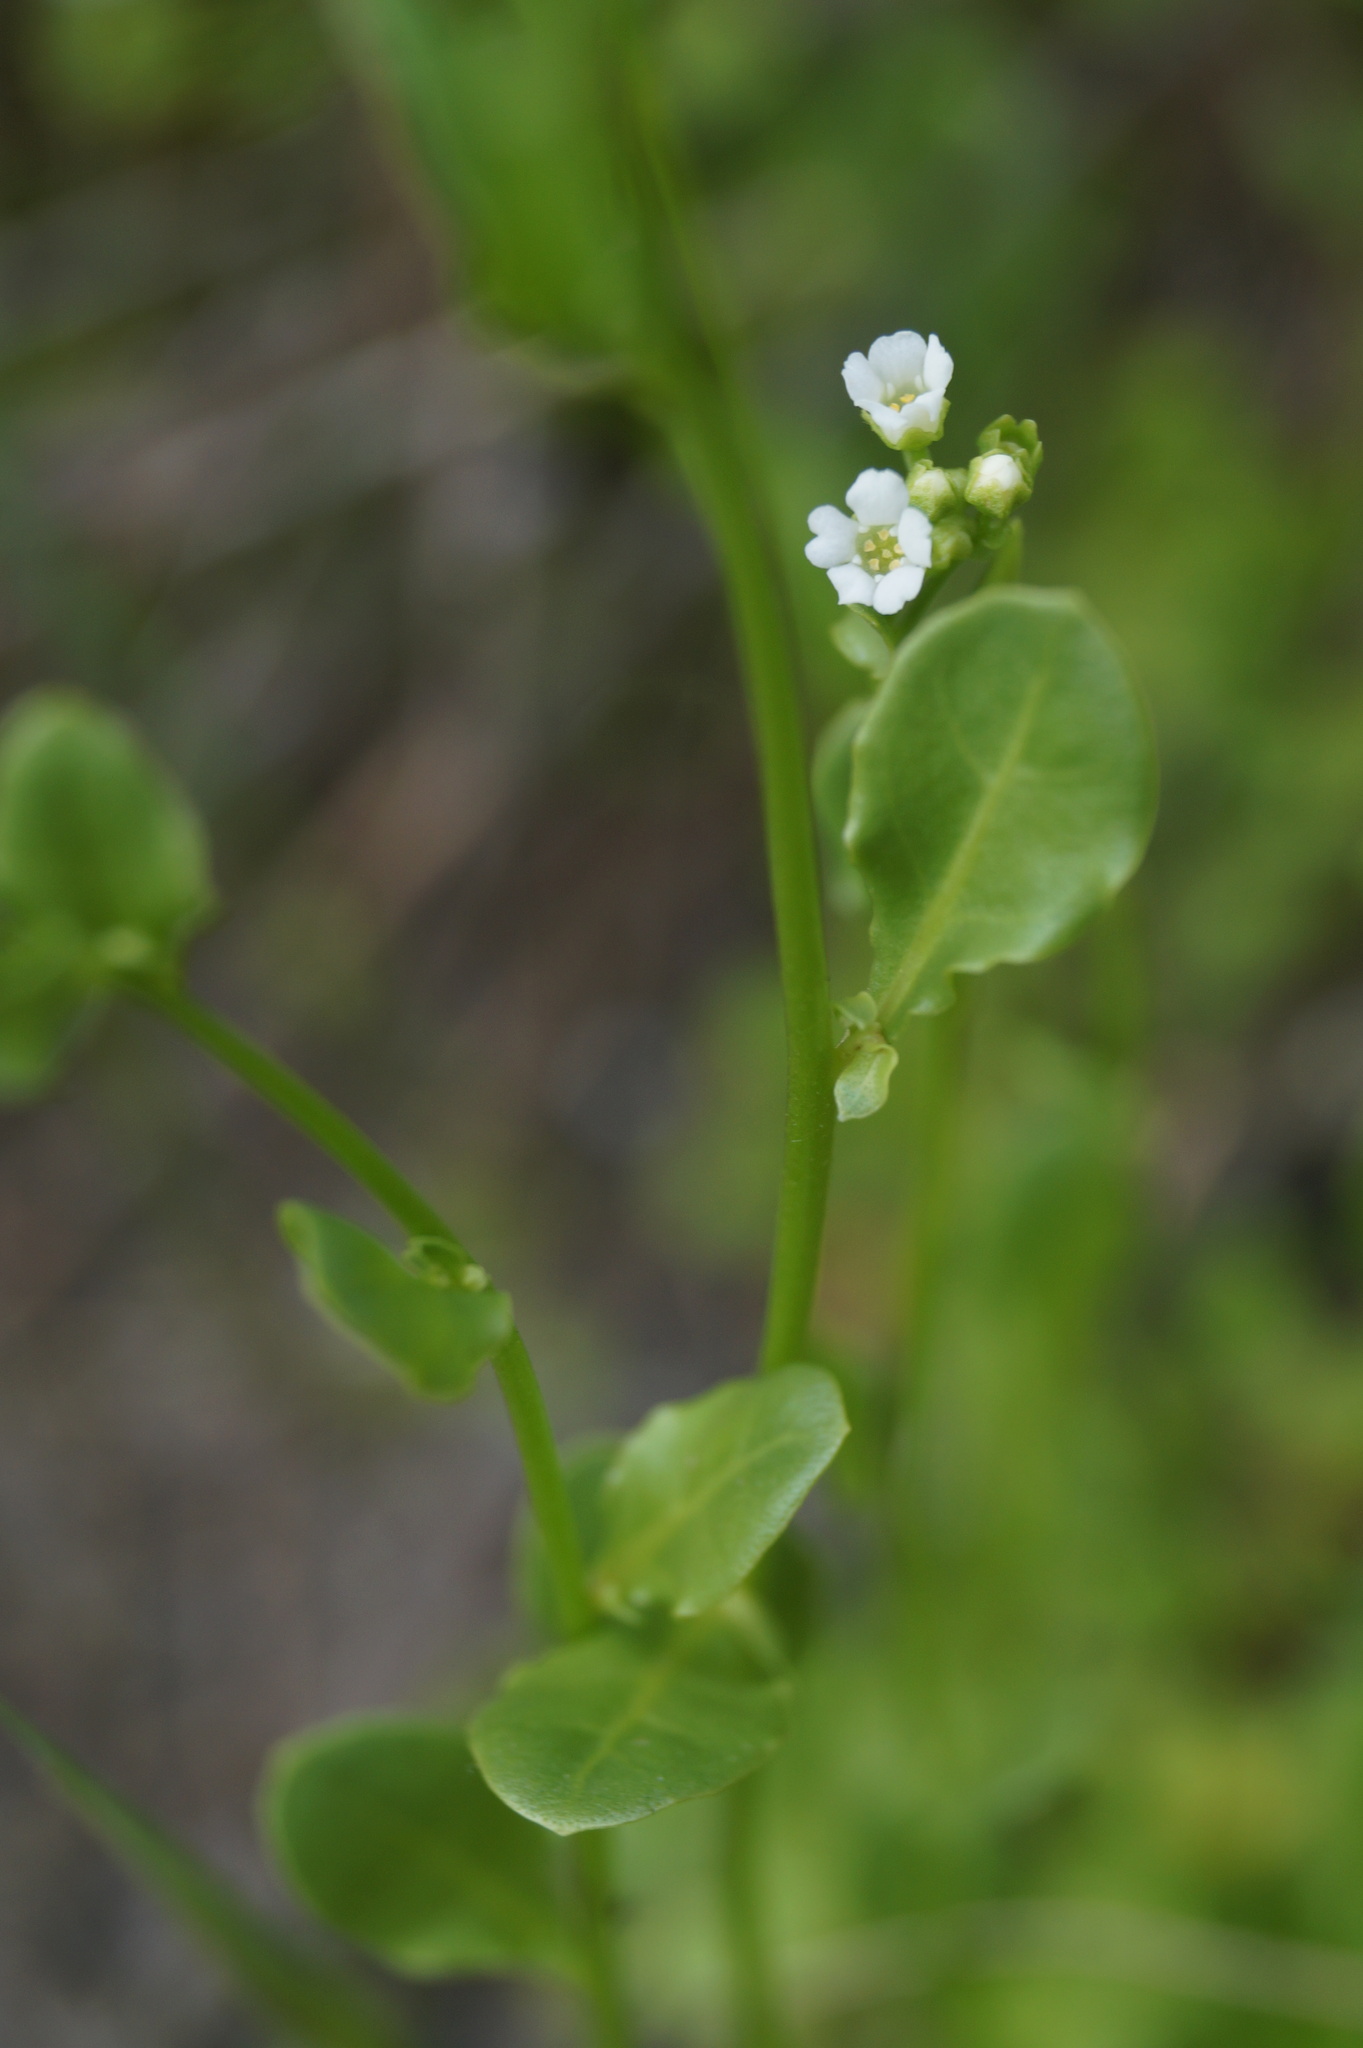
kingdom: Plantae
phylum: Tracheophyta
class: Magnoliopsida
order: Ericales
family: Primulaceae
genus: Samolus
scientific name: Samolus valerandi
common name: Brookweed
